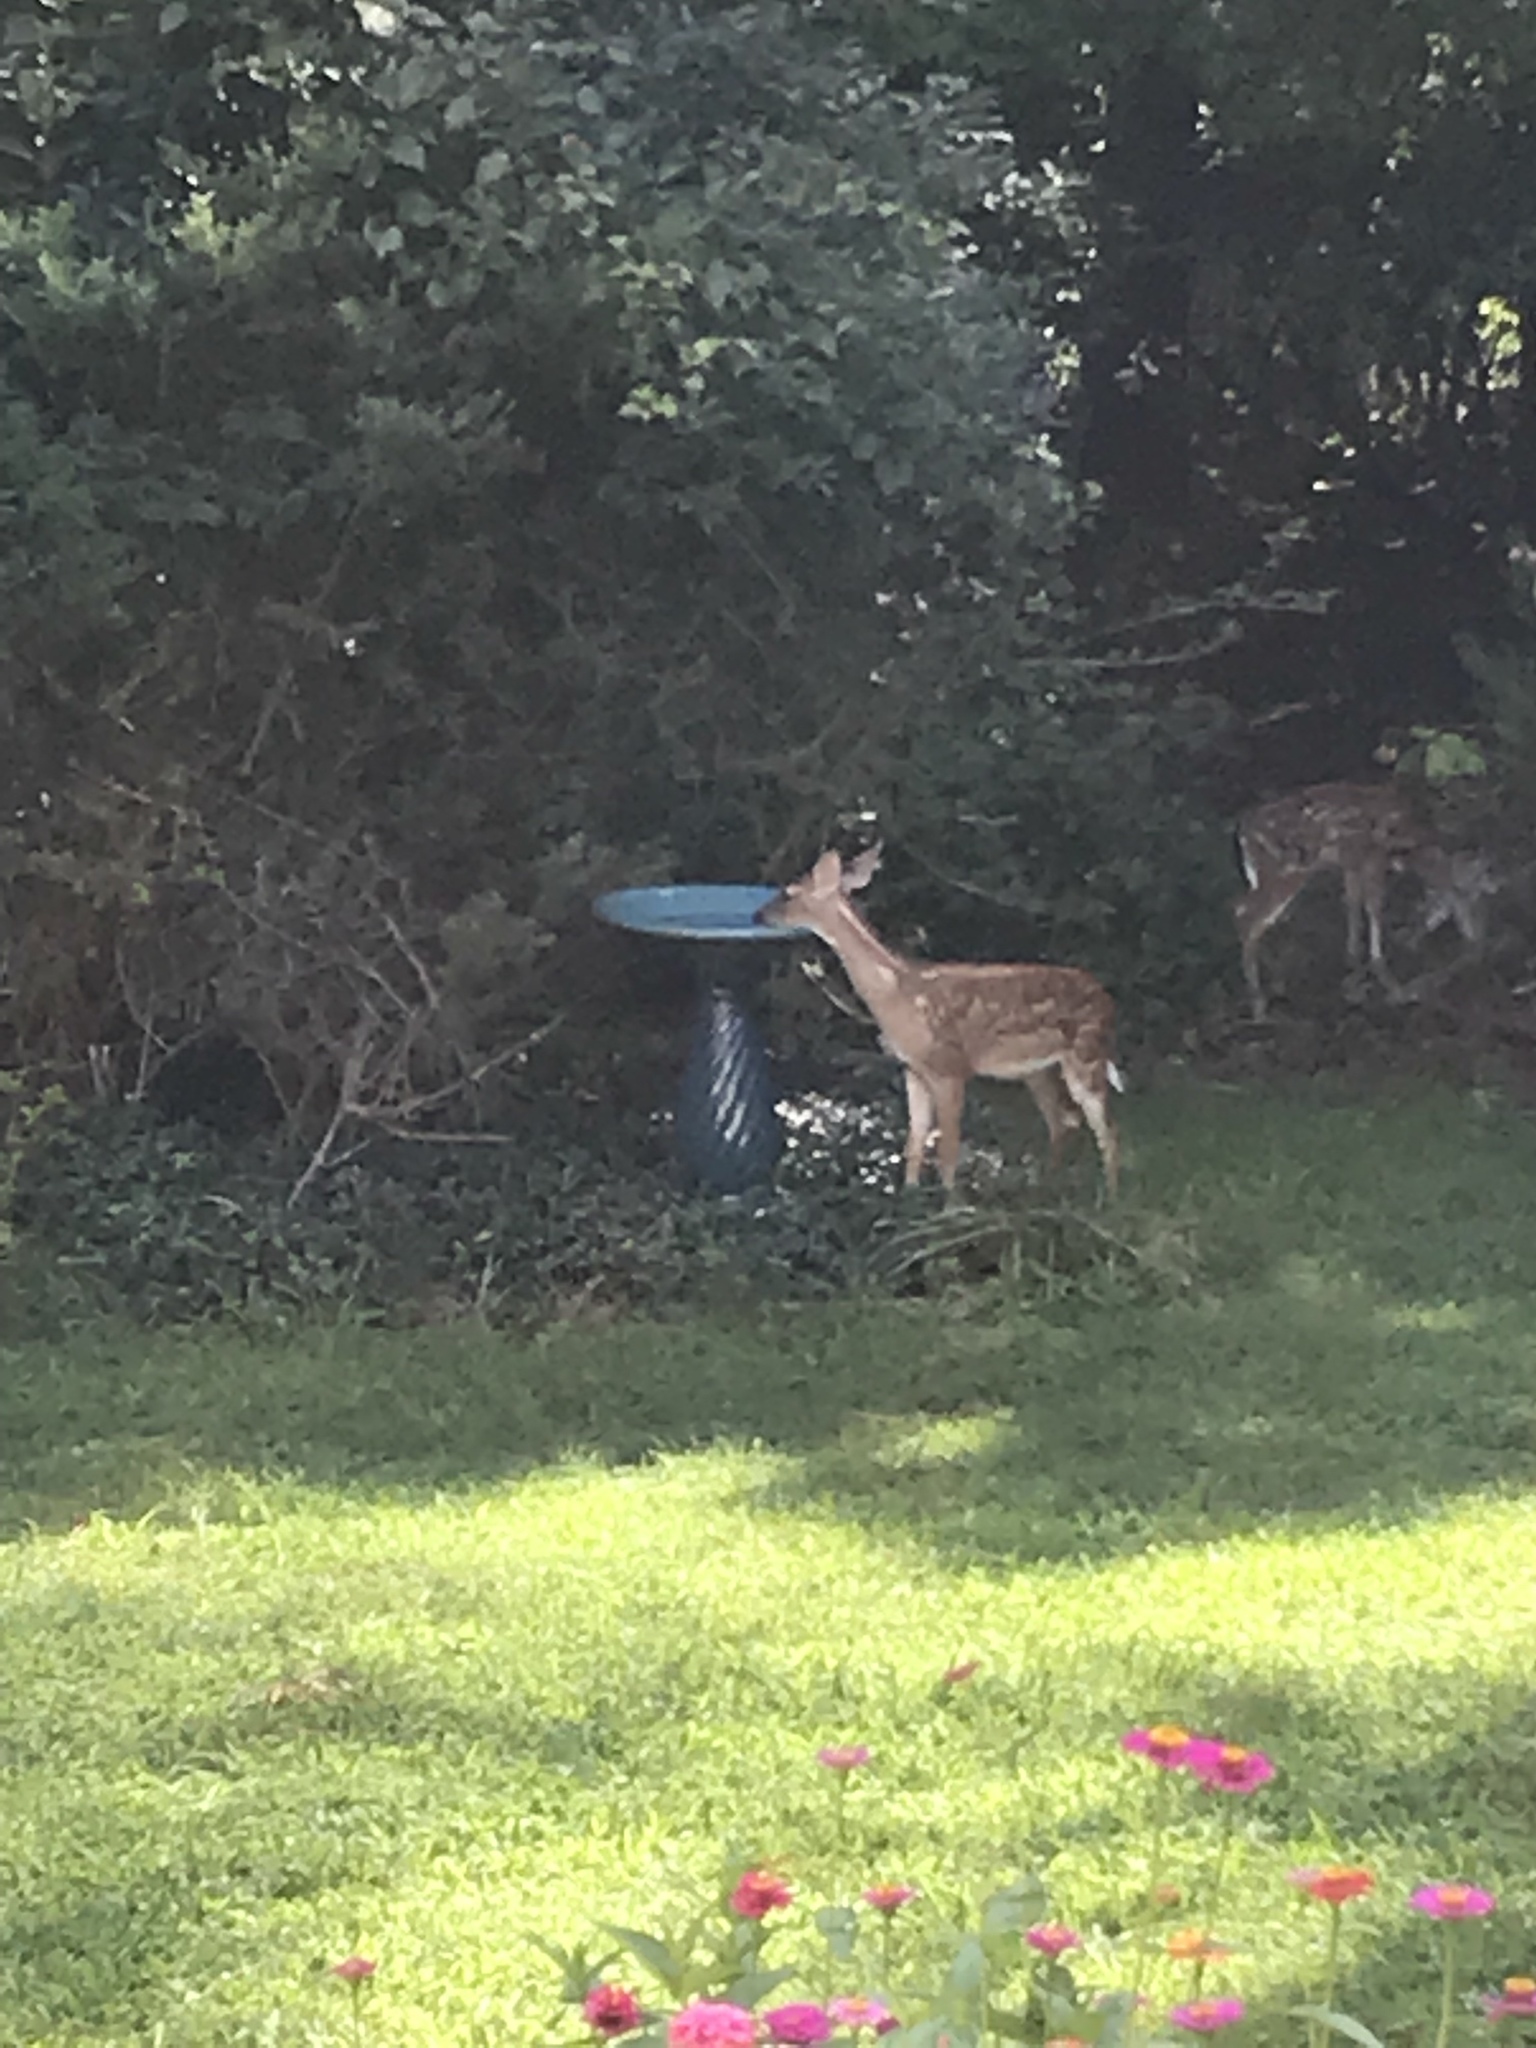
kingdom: Animalia
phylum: Chordata
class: Mammalia
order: Artiodactyla
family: Cervidae
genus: Odocoileus
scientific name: Odocoileus virginianus
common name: White-tailed deer
